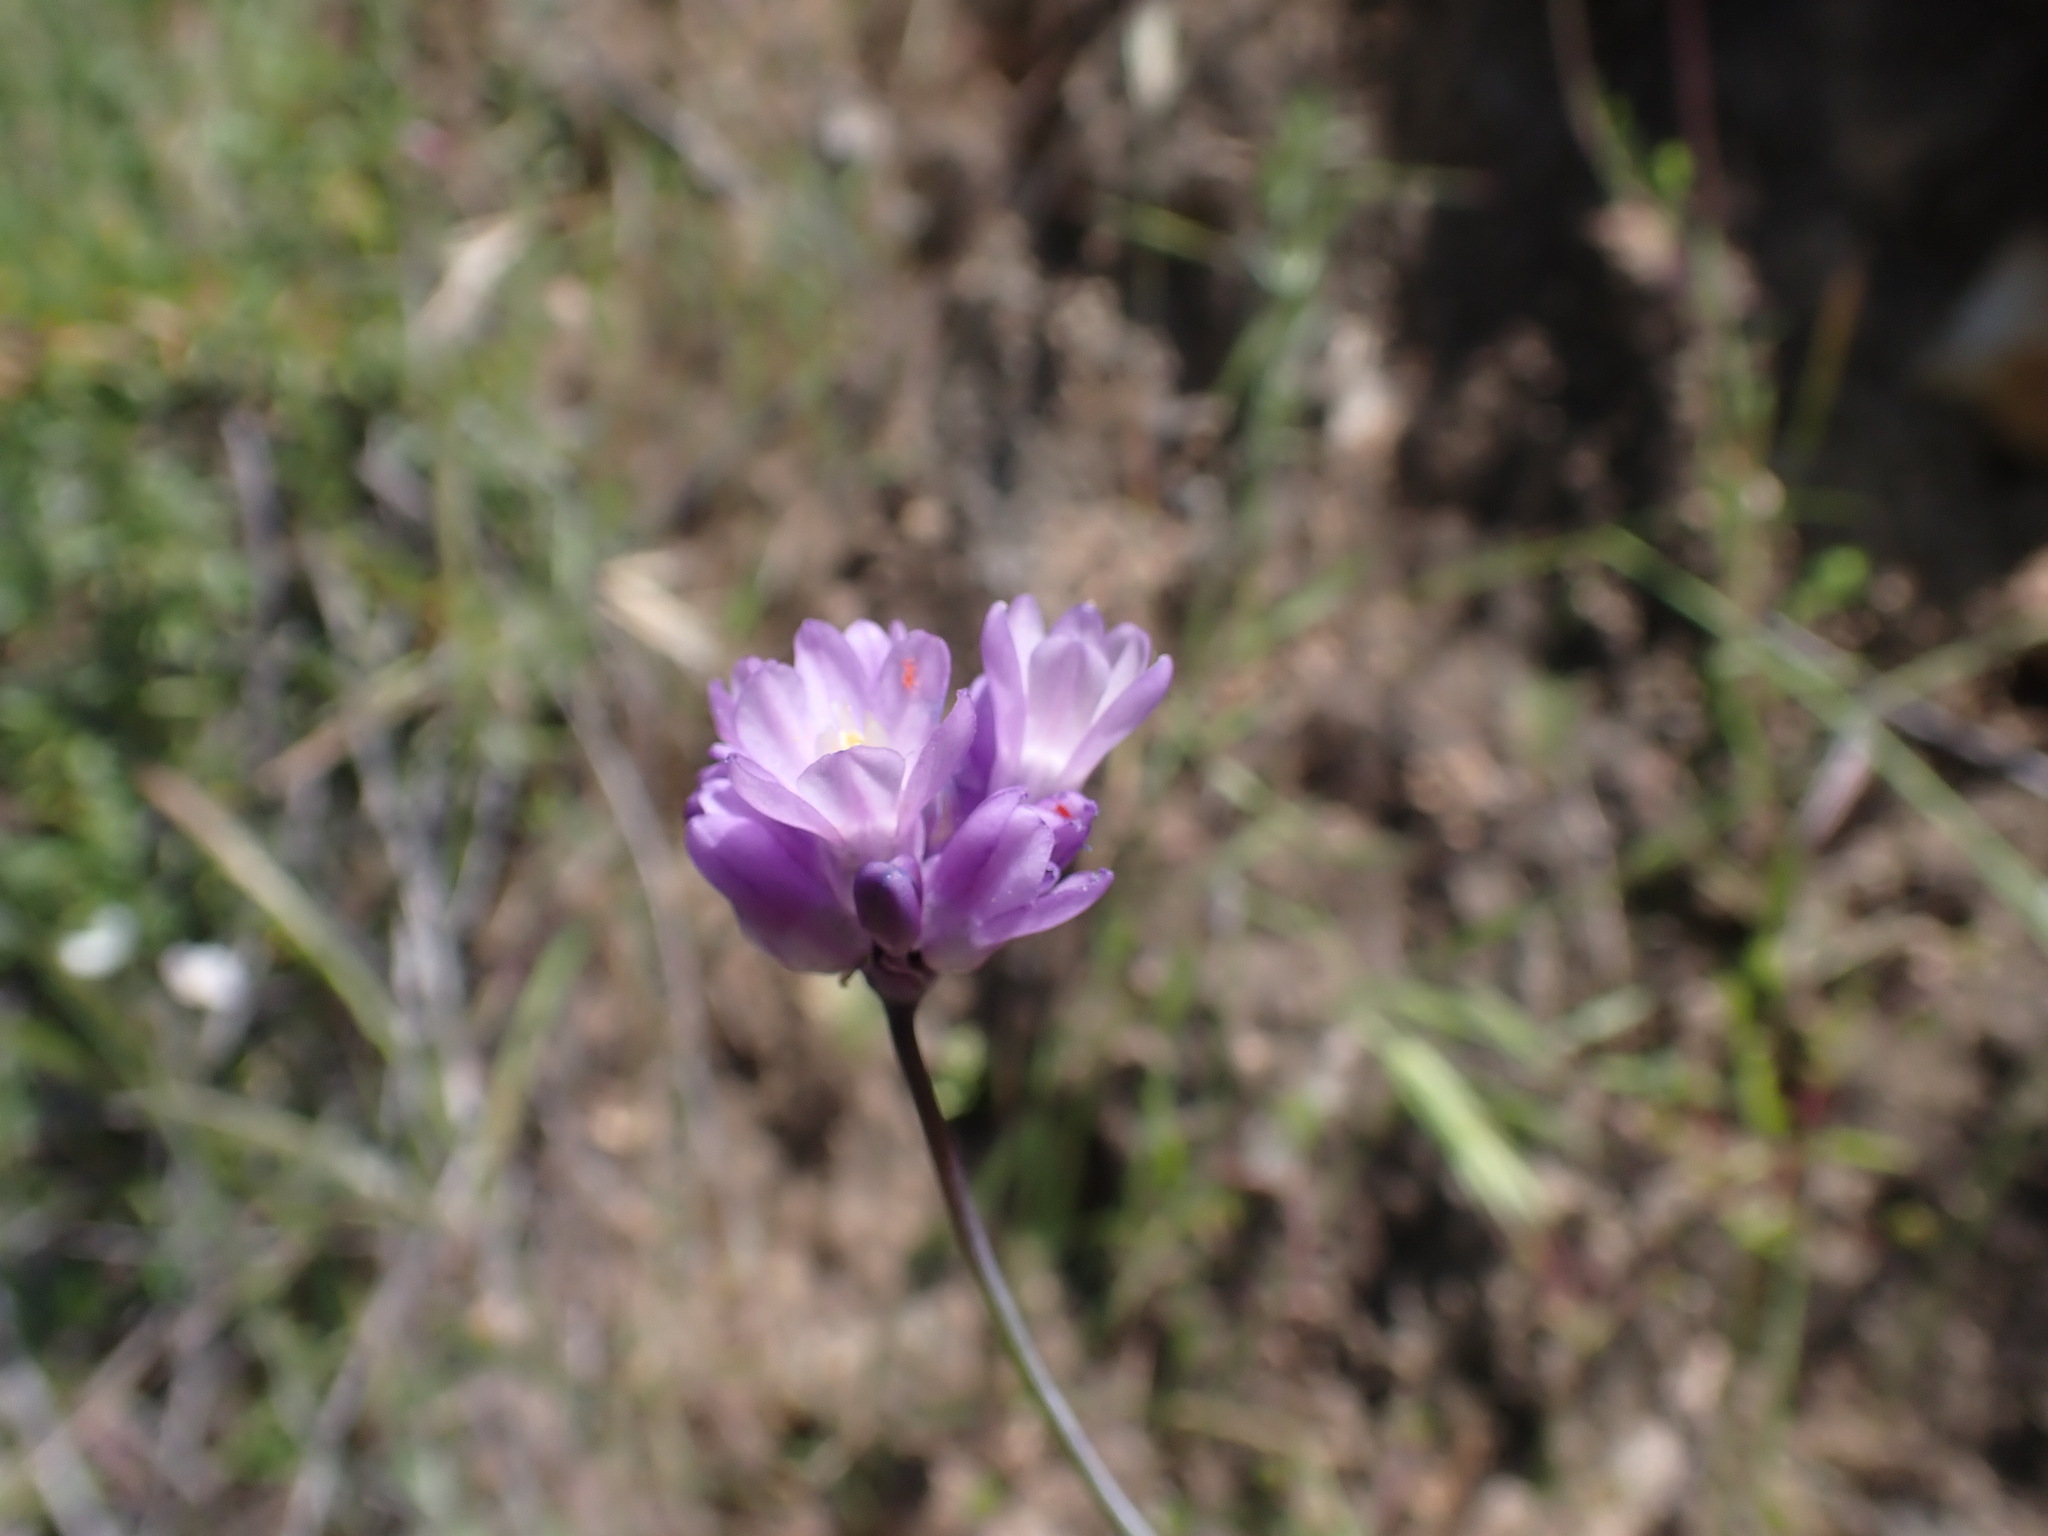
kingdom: Plantae
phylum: Tracheophyta
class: Liliopsida
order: Asparagales
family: Asparagaceae
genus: Dipterostemon
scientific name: Dipterostemon capitatus
